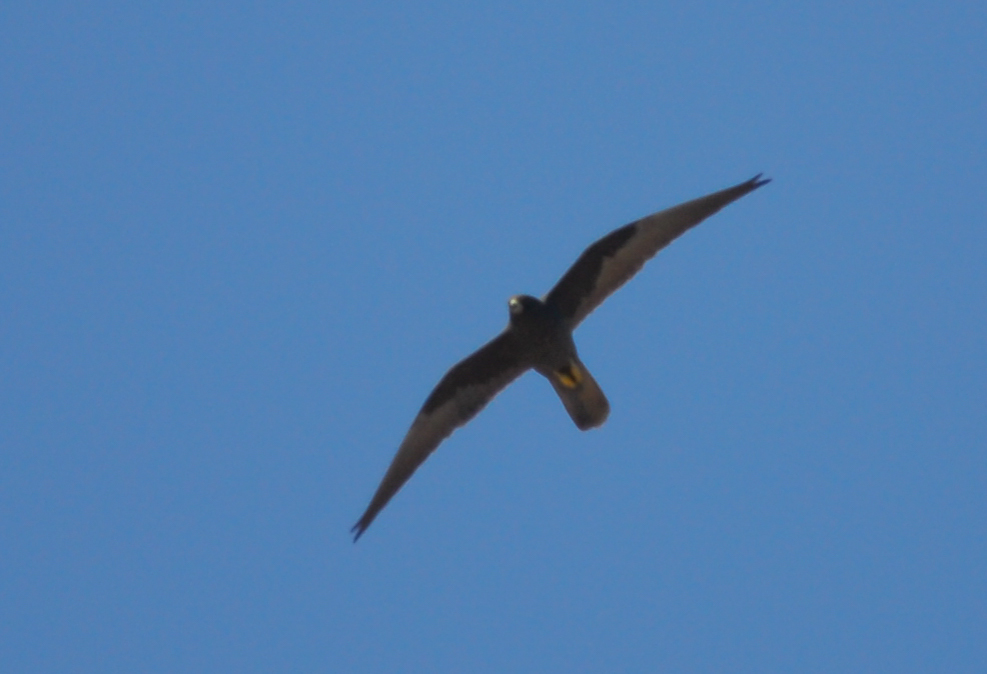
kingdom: Animalia
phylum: Chordata
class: Aves
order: Falconiformes
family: Falconidae
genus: Falco
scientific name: Falco eleonorae
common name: Eleonora's falcon
